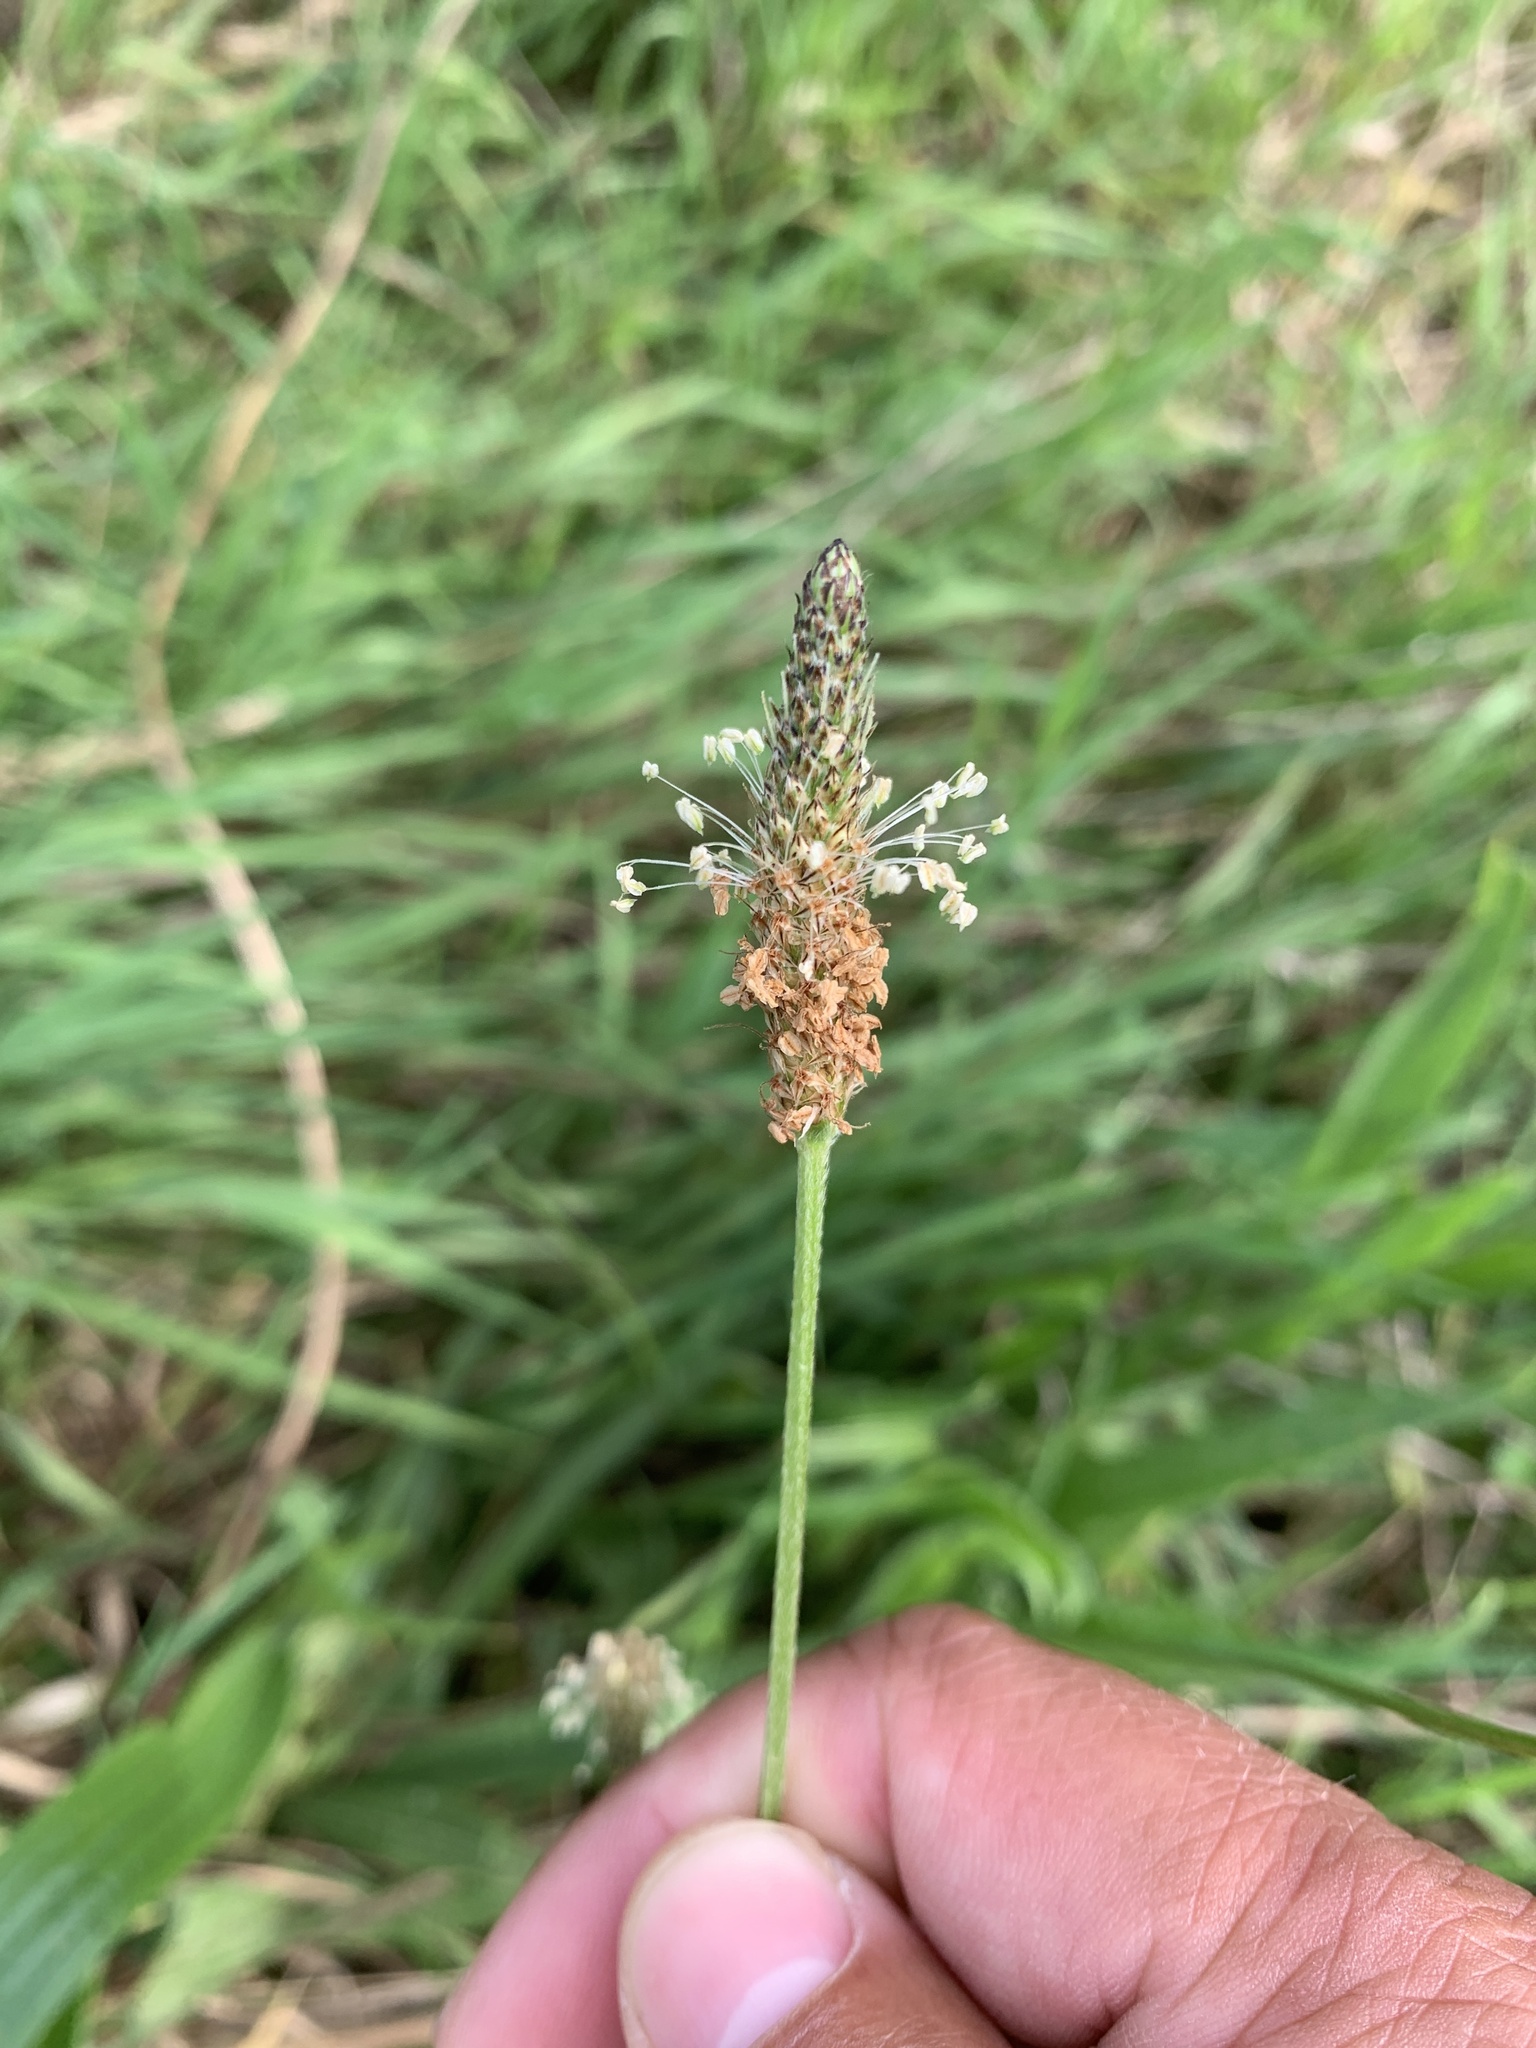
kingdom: Plantae
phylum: Tracheophyta
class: Magnoliopsida
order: Lamiales
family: Plantaginaceae
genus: Plantago
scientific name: Plantago lanceolata
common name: Ribwort plantain
